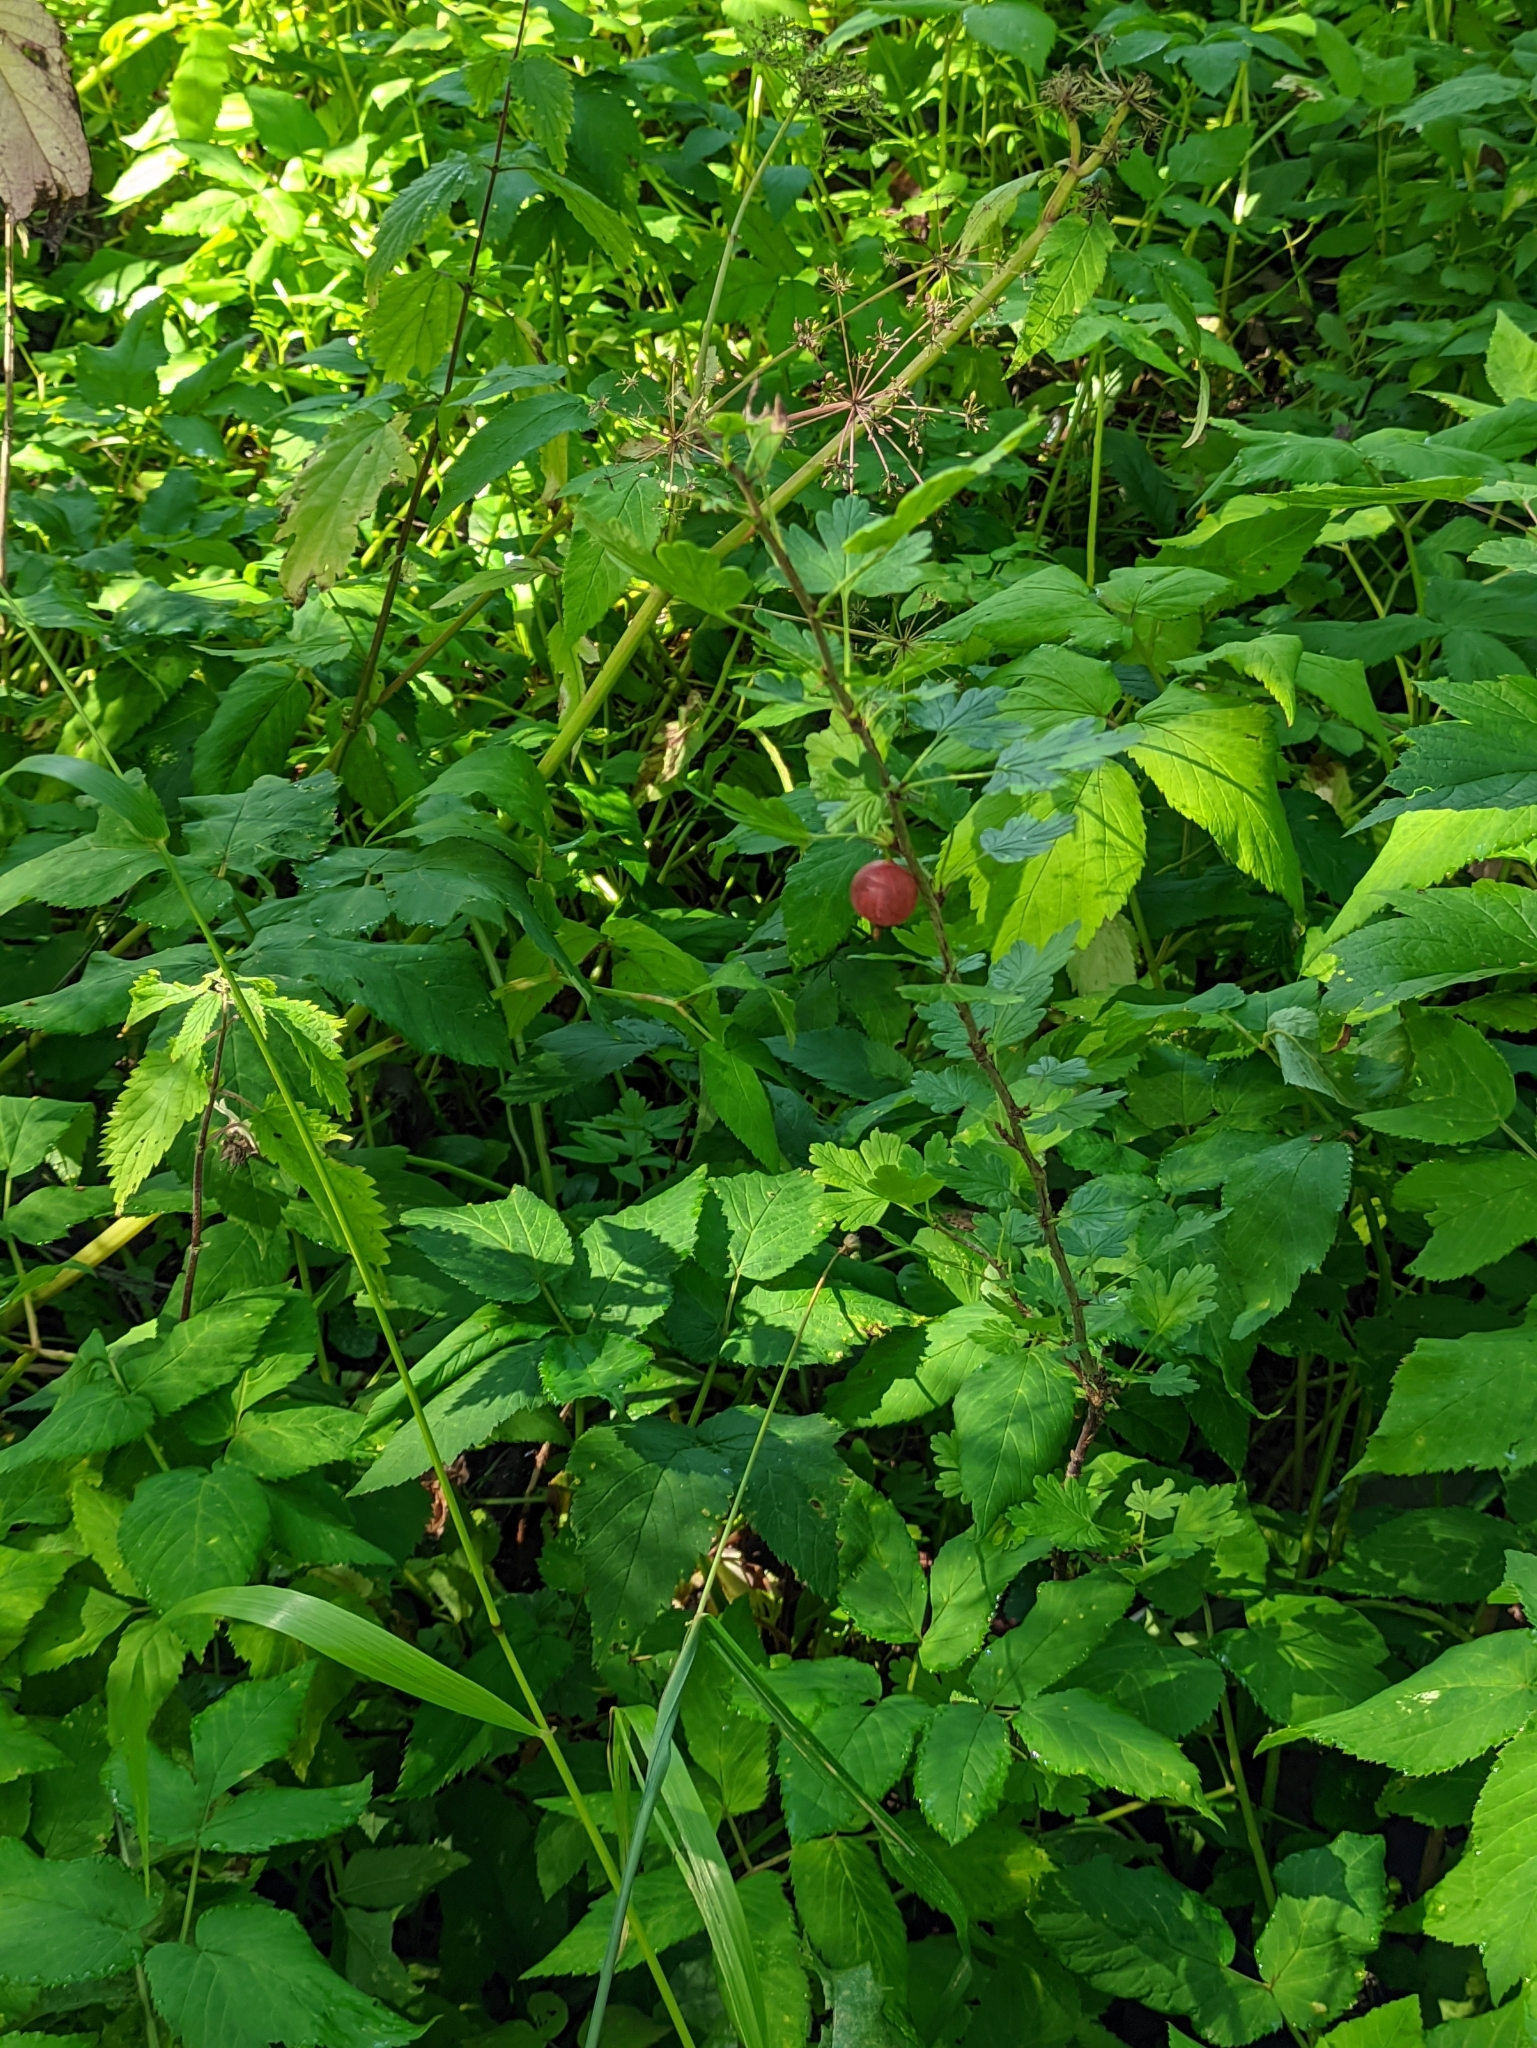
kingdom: Plantae
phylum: Tracheophyta
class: Magnoliopsida
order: Saxifragales
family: Grossulariaceae
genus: Ribes
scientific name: Ribes uva-crispa
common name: Gooseberry
